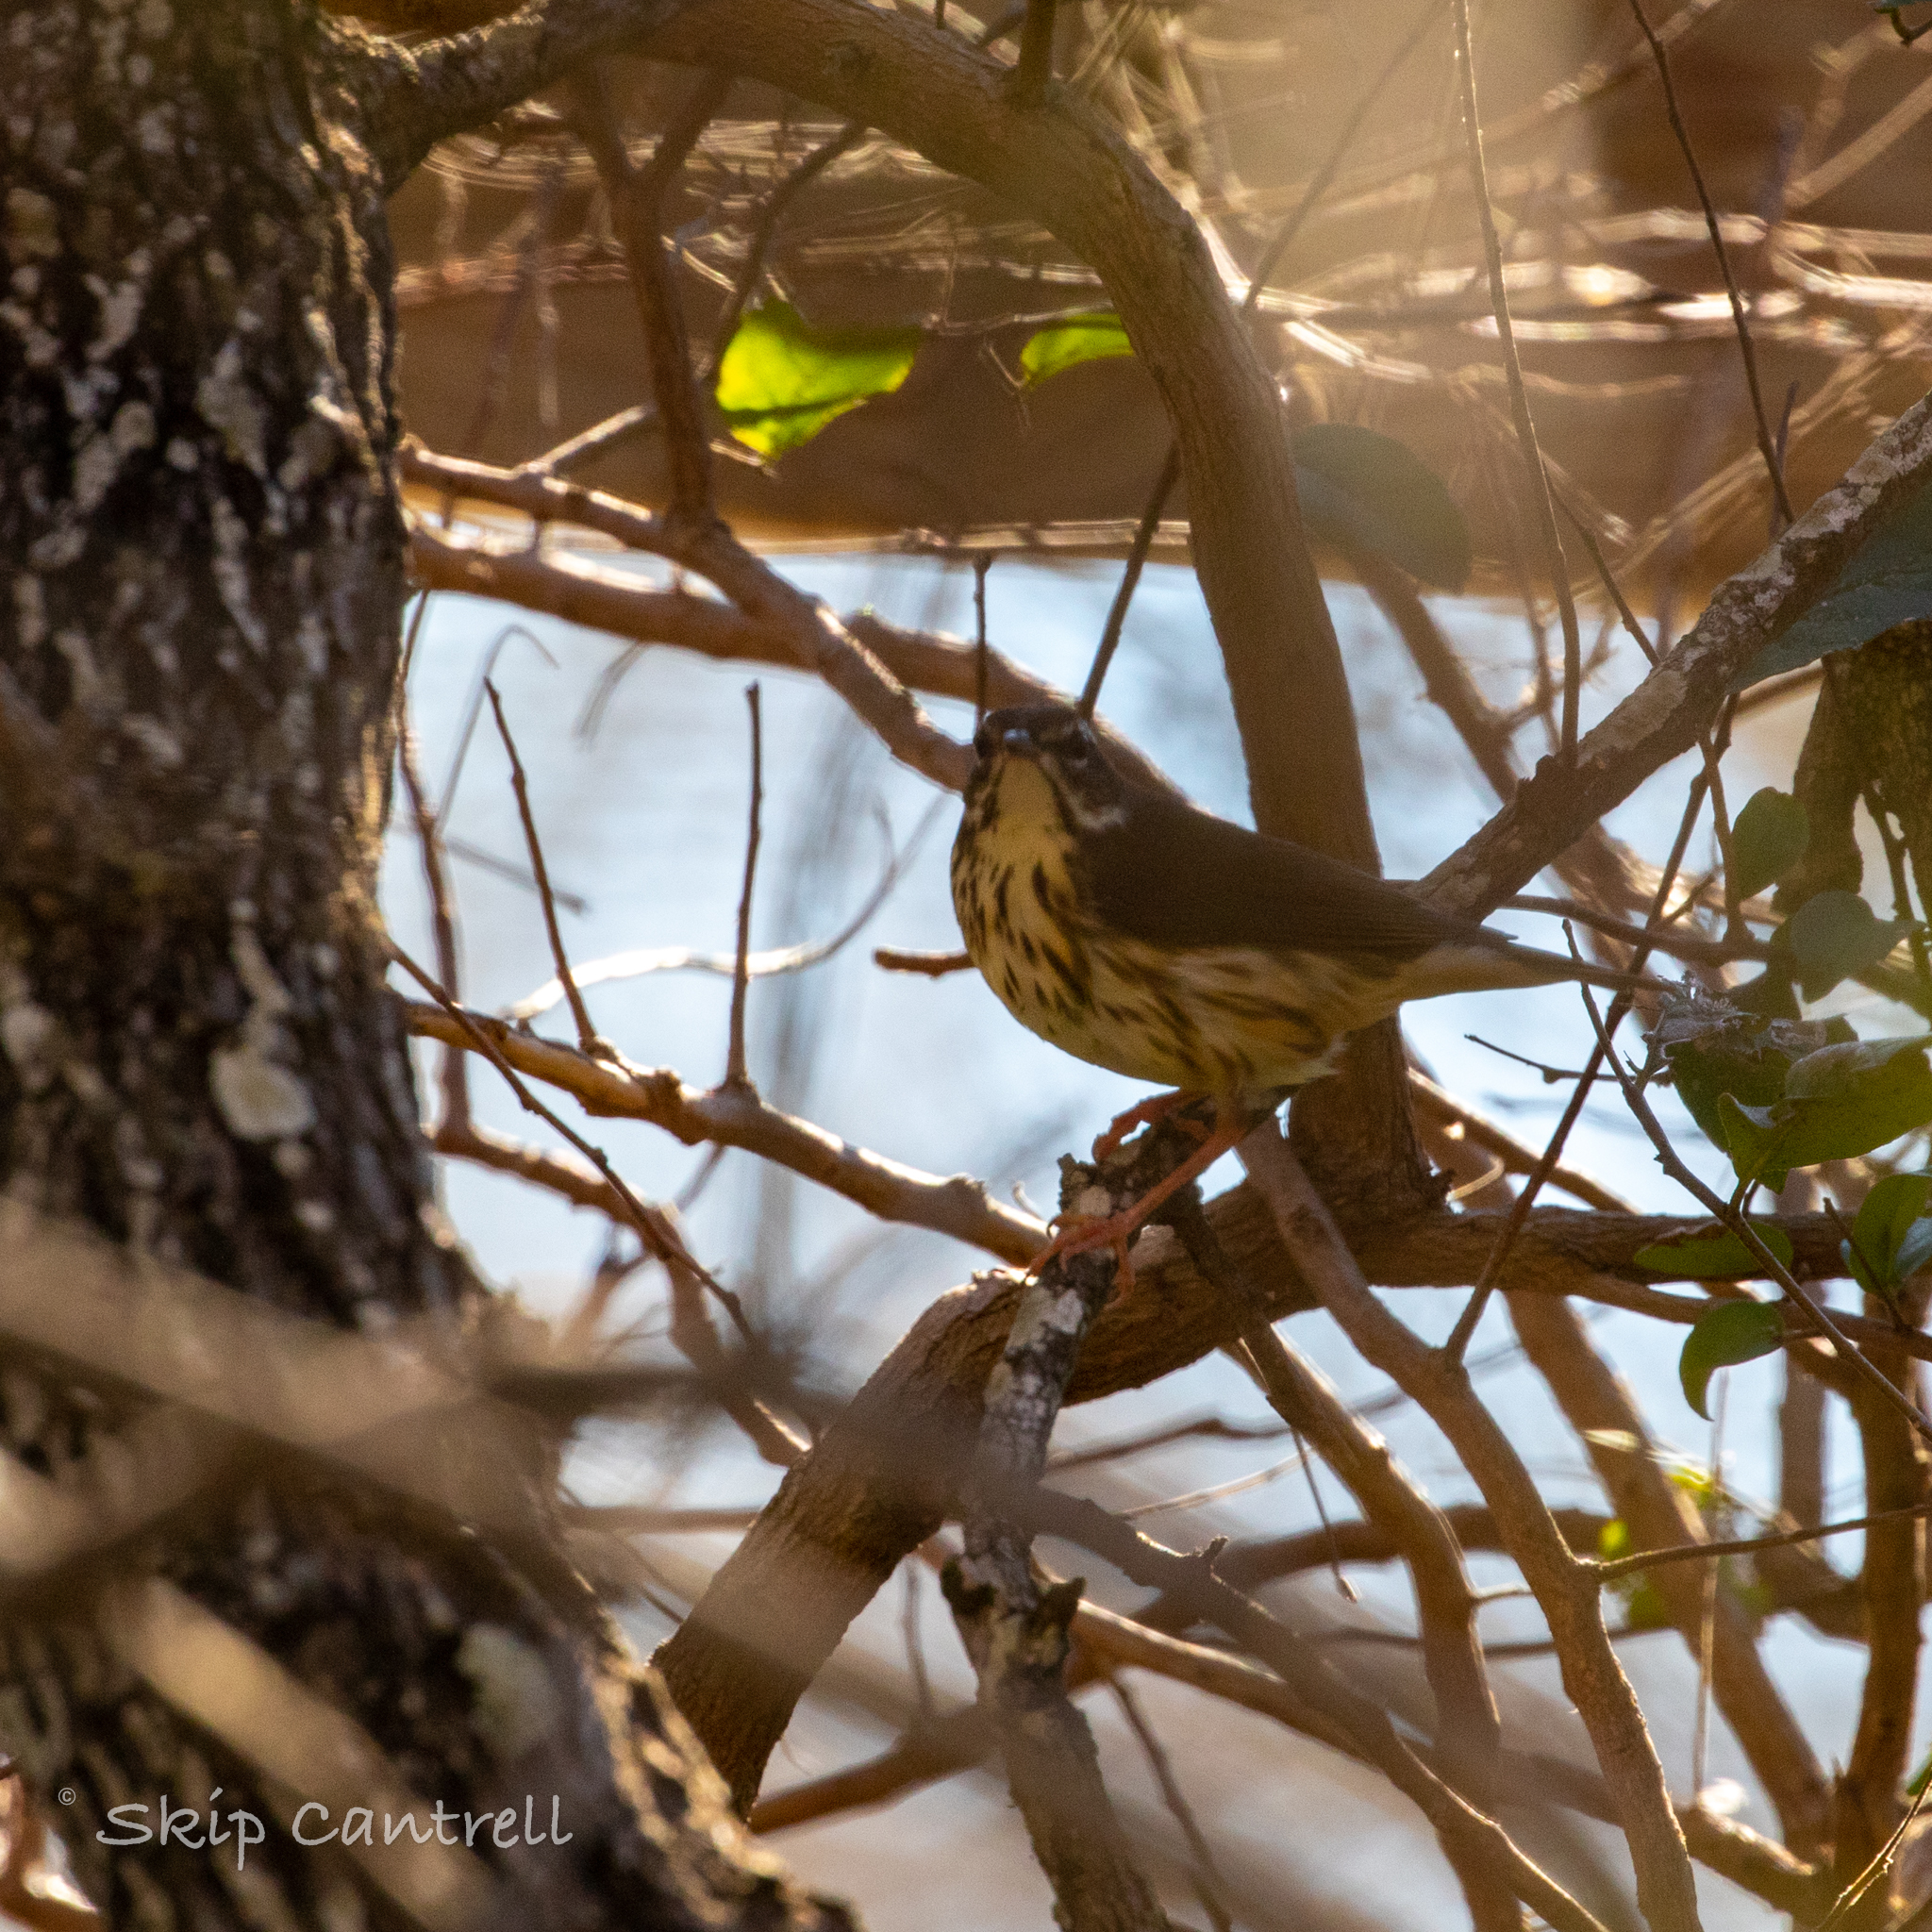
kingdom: Animalia
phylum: Chordata
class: Aves
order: Passeriformes
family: Parulidae
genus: Parkesia
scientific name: Parkesia motacilla
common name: Louisiana waterthrush
